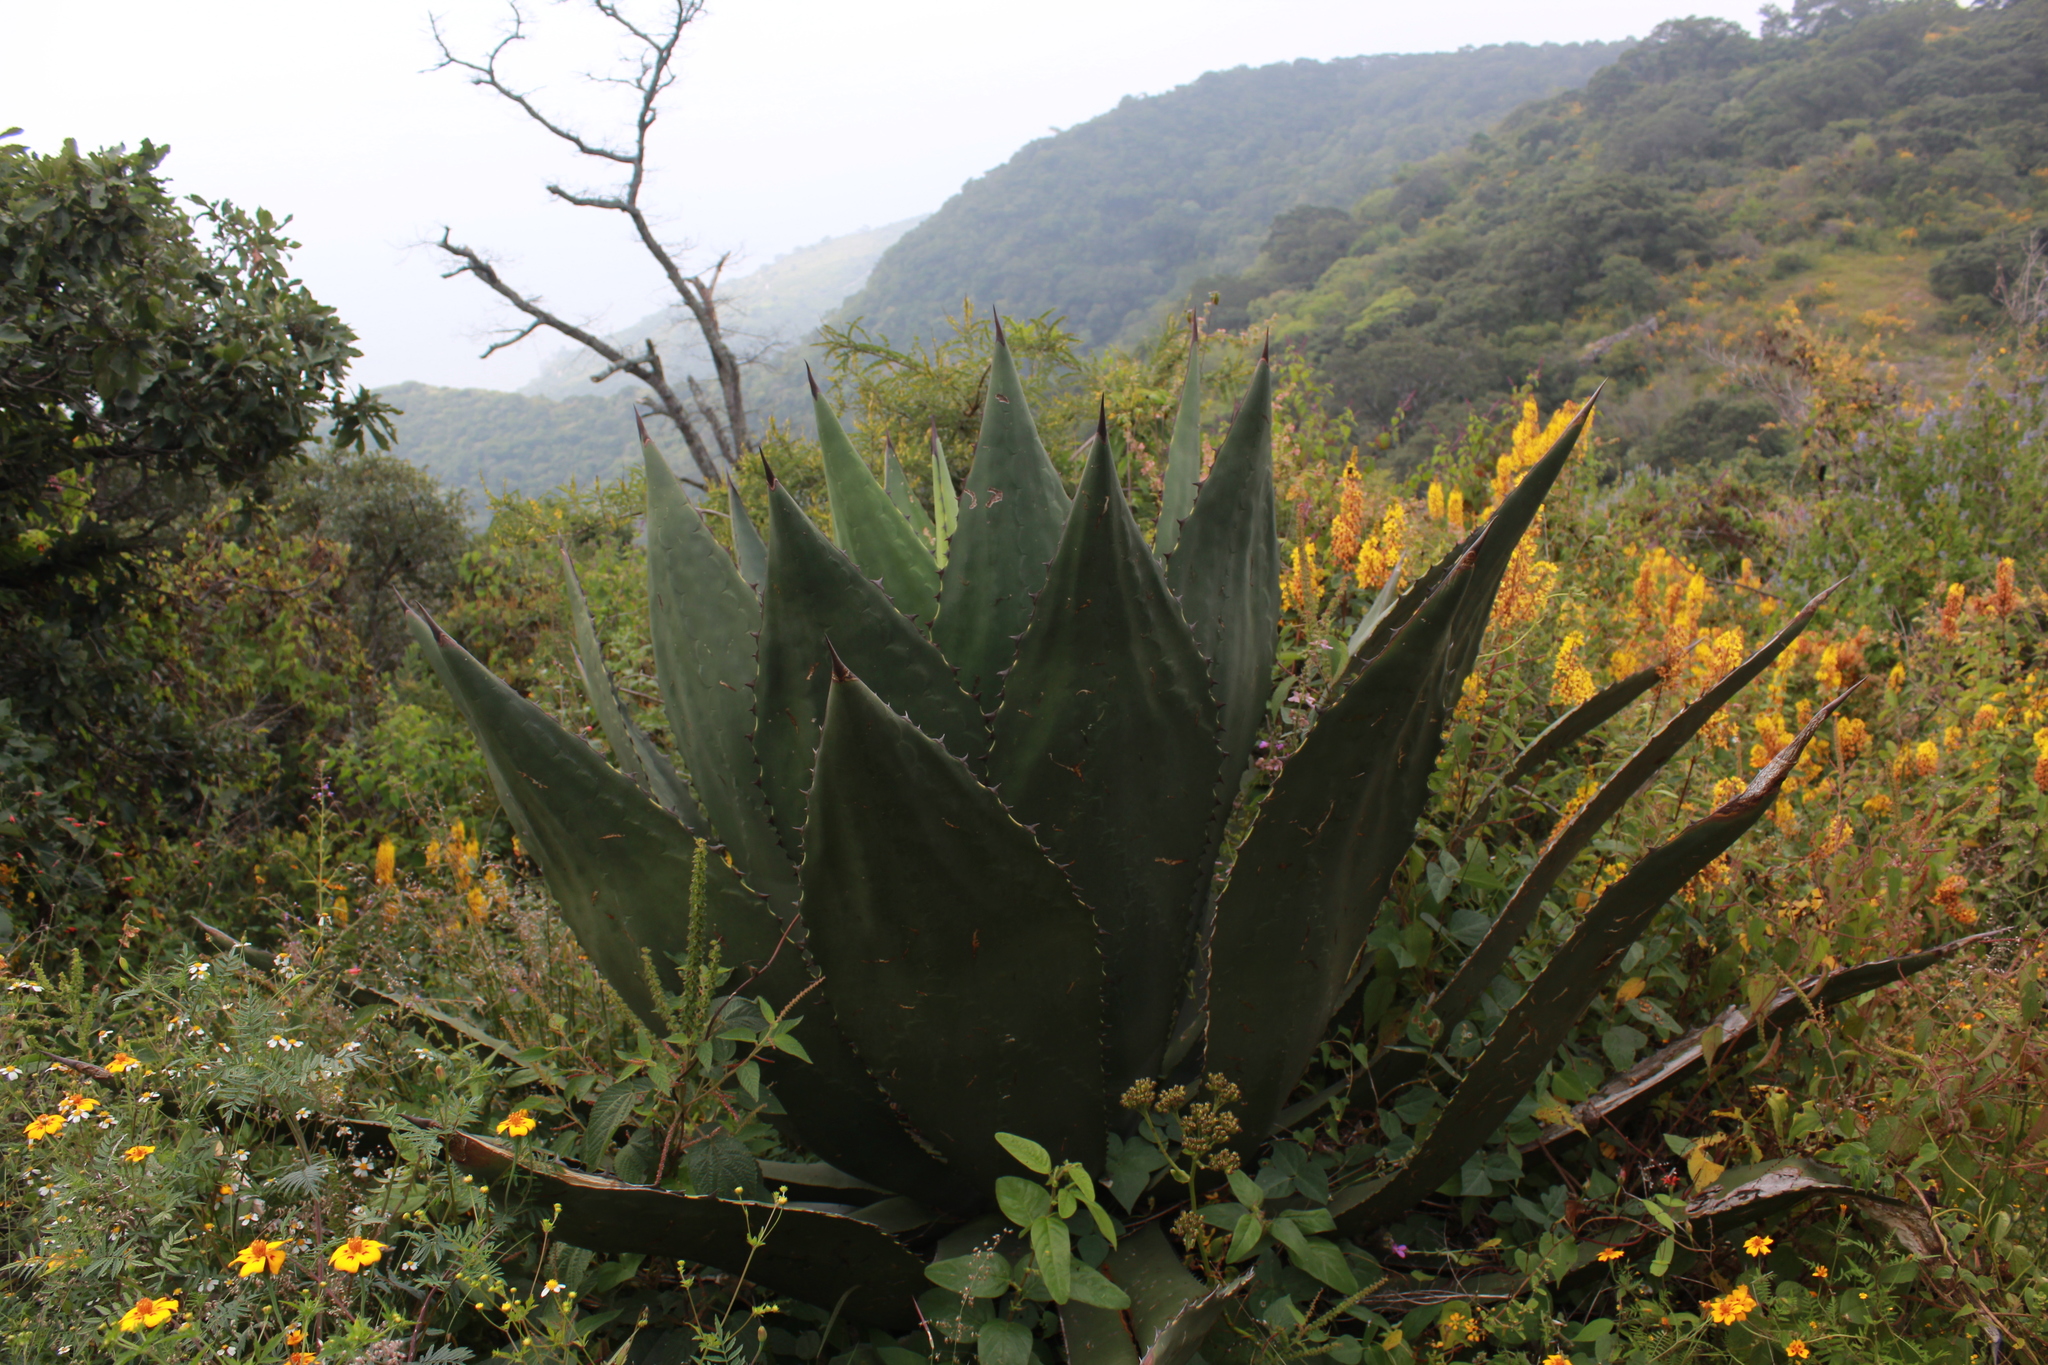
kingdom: Plantae
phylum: Tracheophyta
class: Liliopsida
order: Asparagales
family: Asparagaceae
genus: Agave
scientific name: Agave inaequidens
